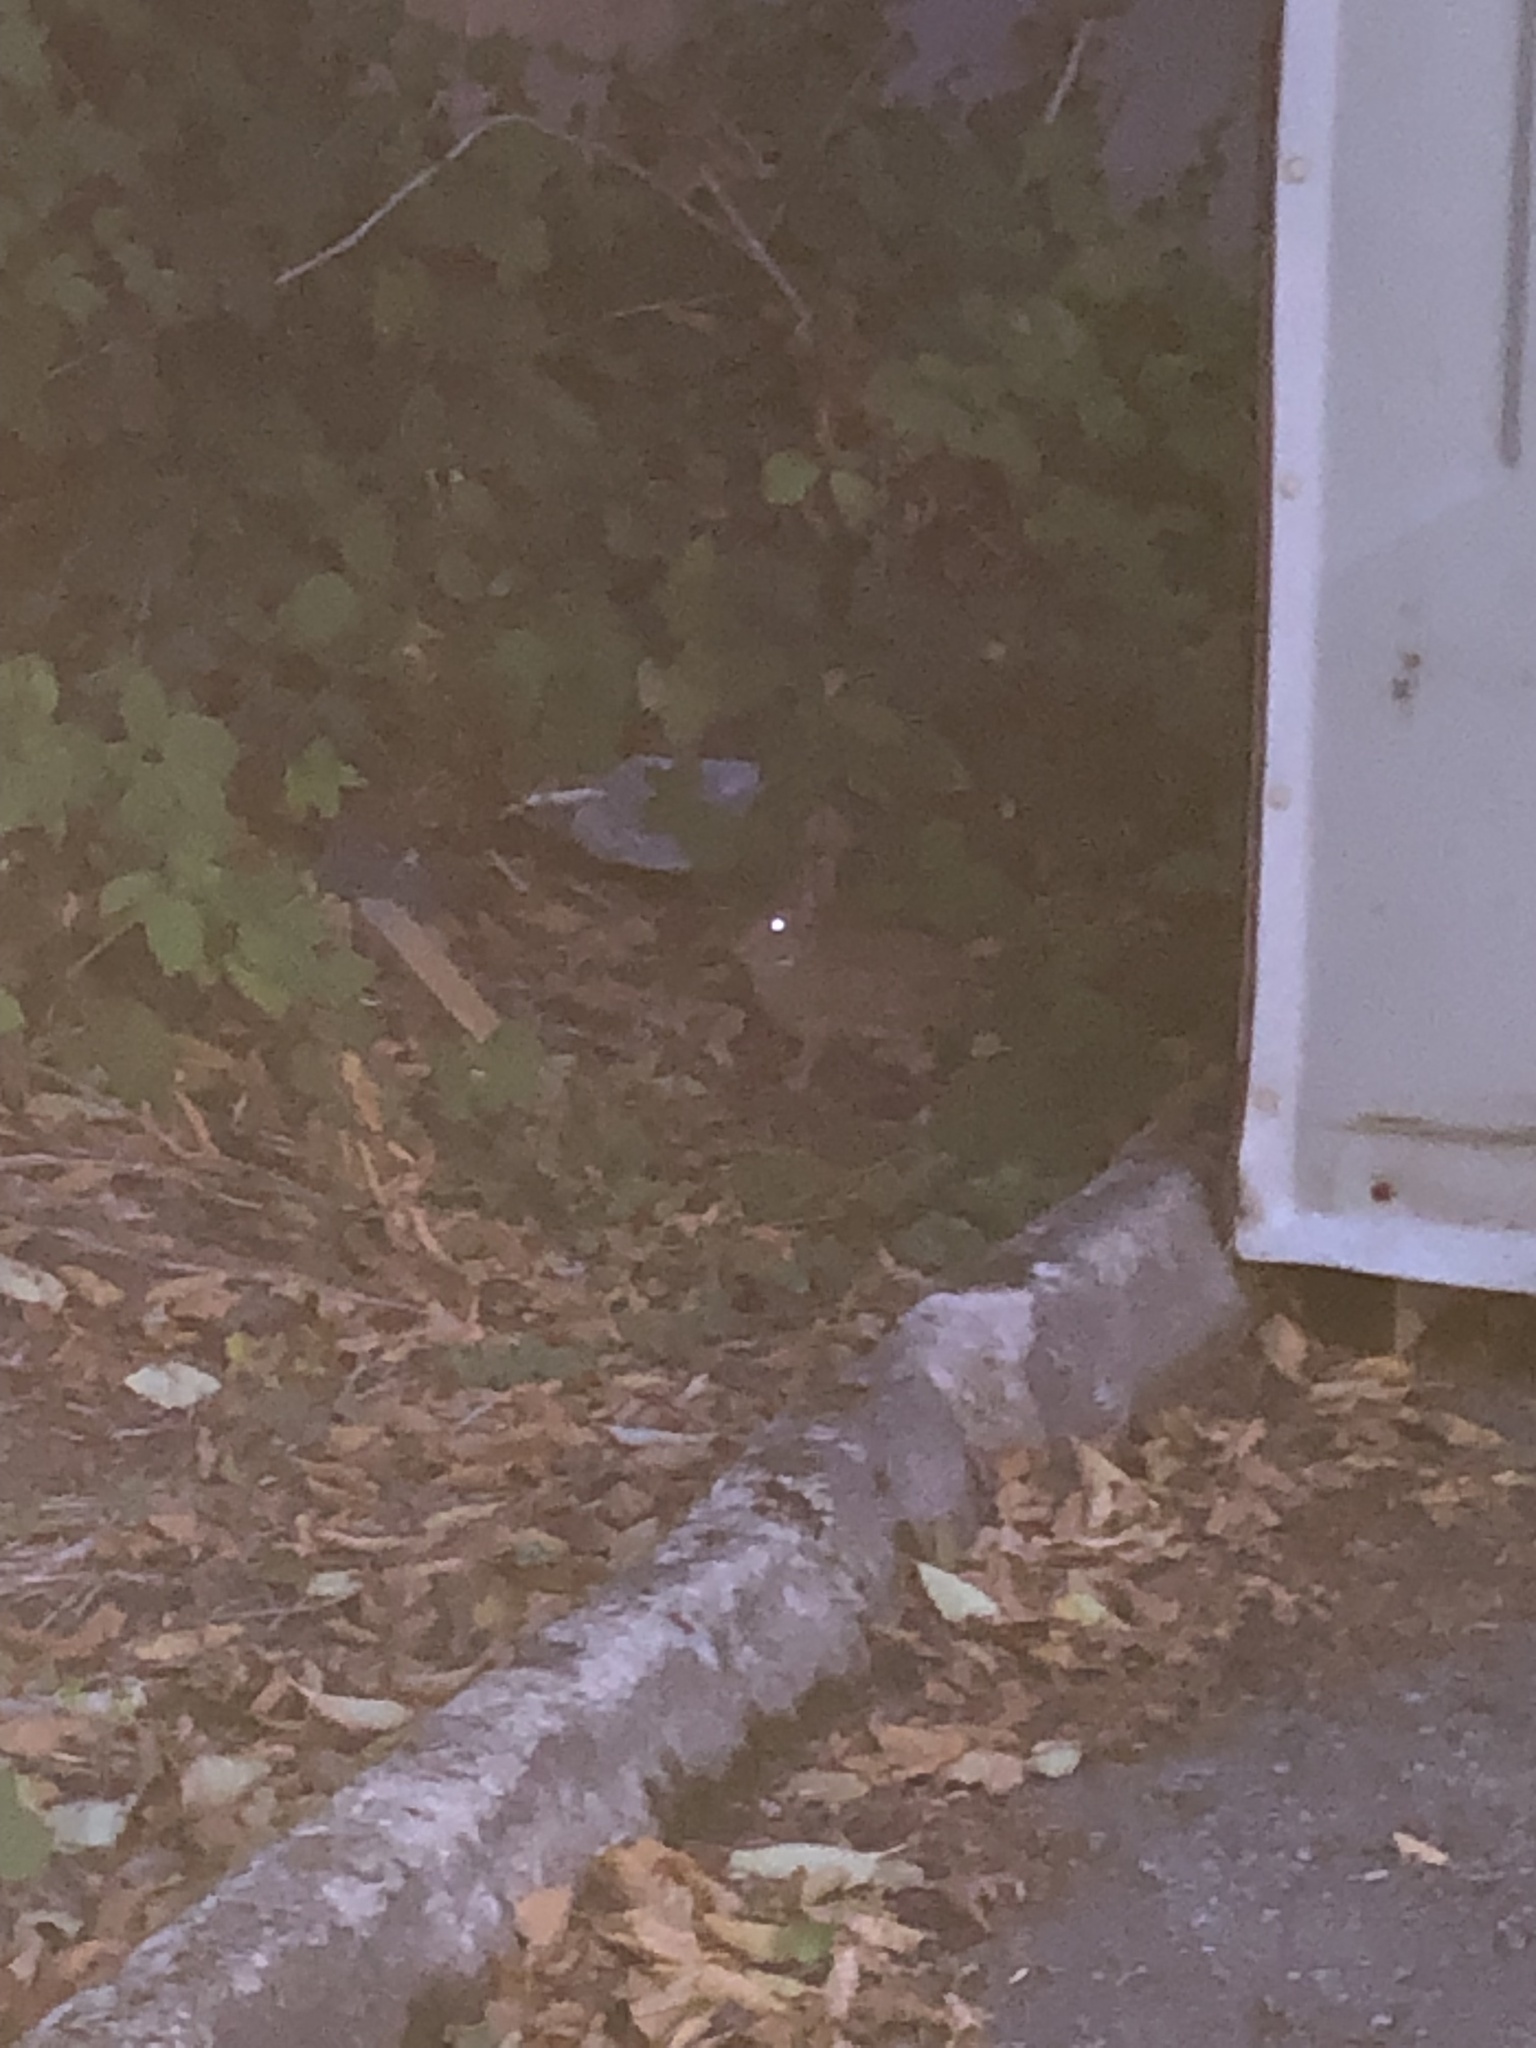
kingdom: Animalia
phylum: Chordata
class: Mammalia
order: Lagomorpha
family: Leporidae
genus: Sylvilagus
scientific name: Sylvilagus floridanus
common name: Eastern cottontail
